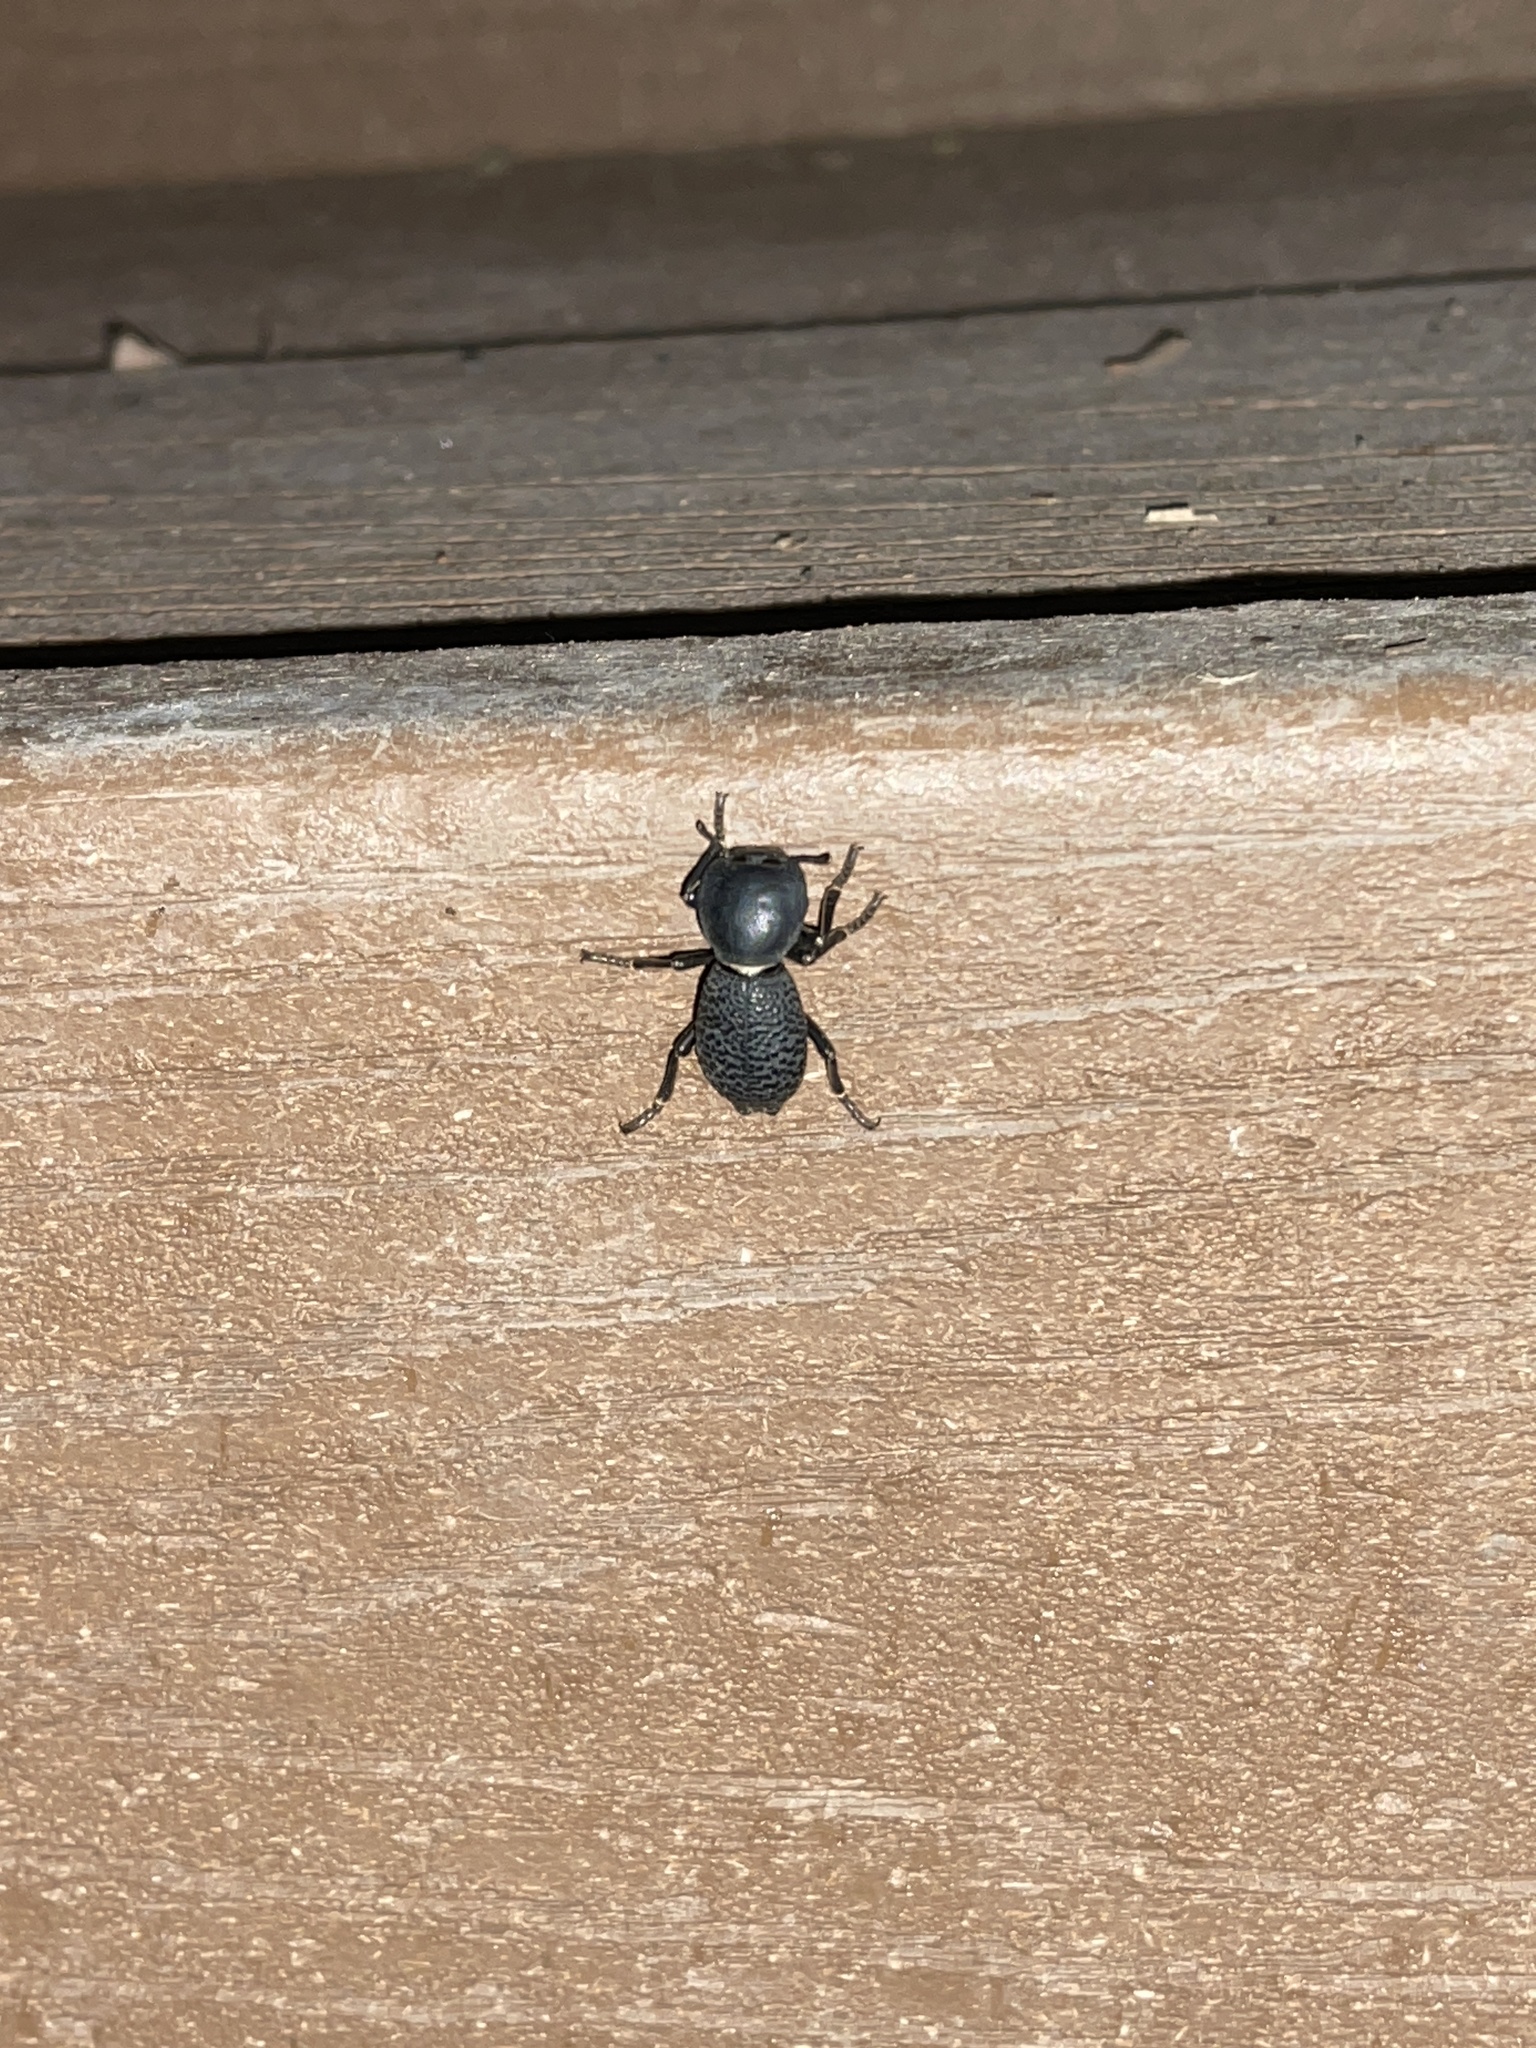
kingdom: Animalia
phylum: Arthropoda
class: Insecta
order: Coleoptera
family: Zopheridae
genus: Zopherus
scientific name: Zopherus concolor
